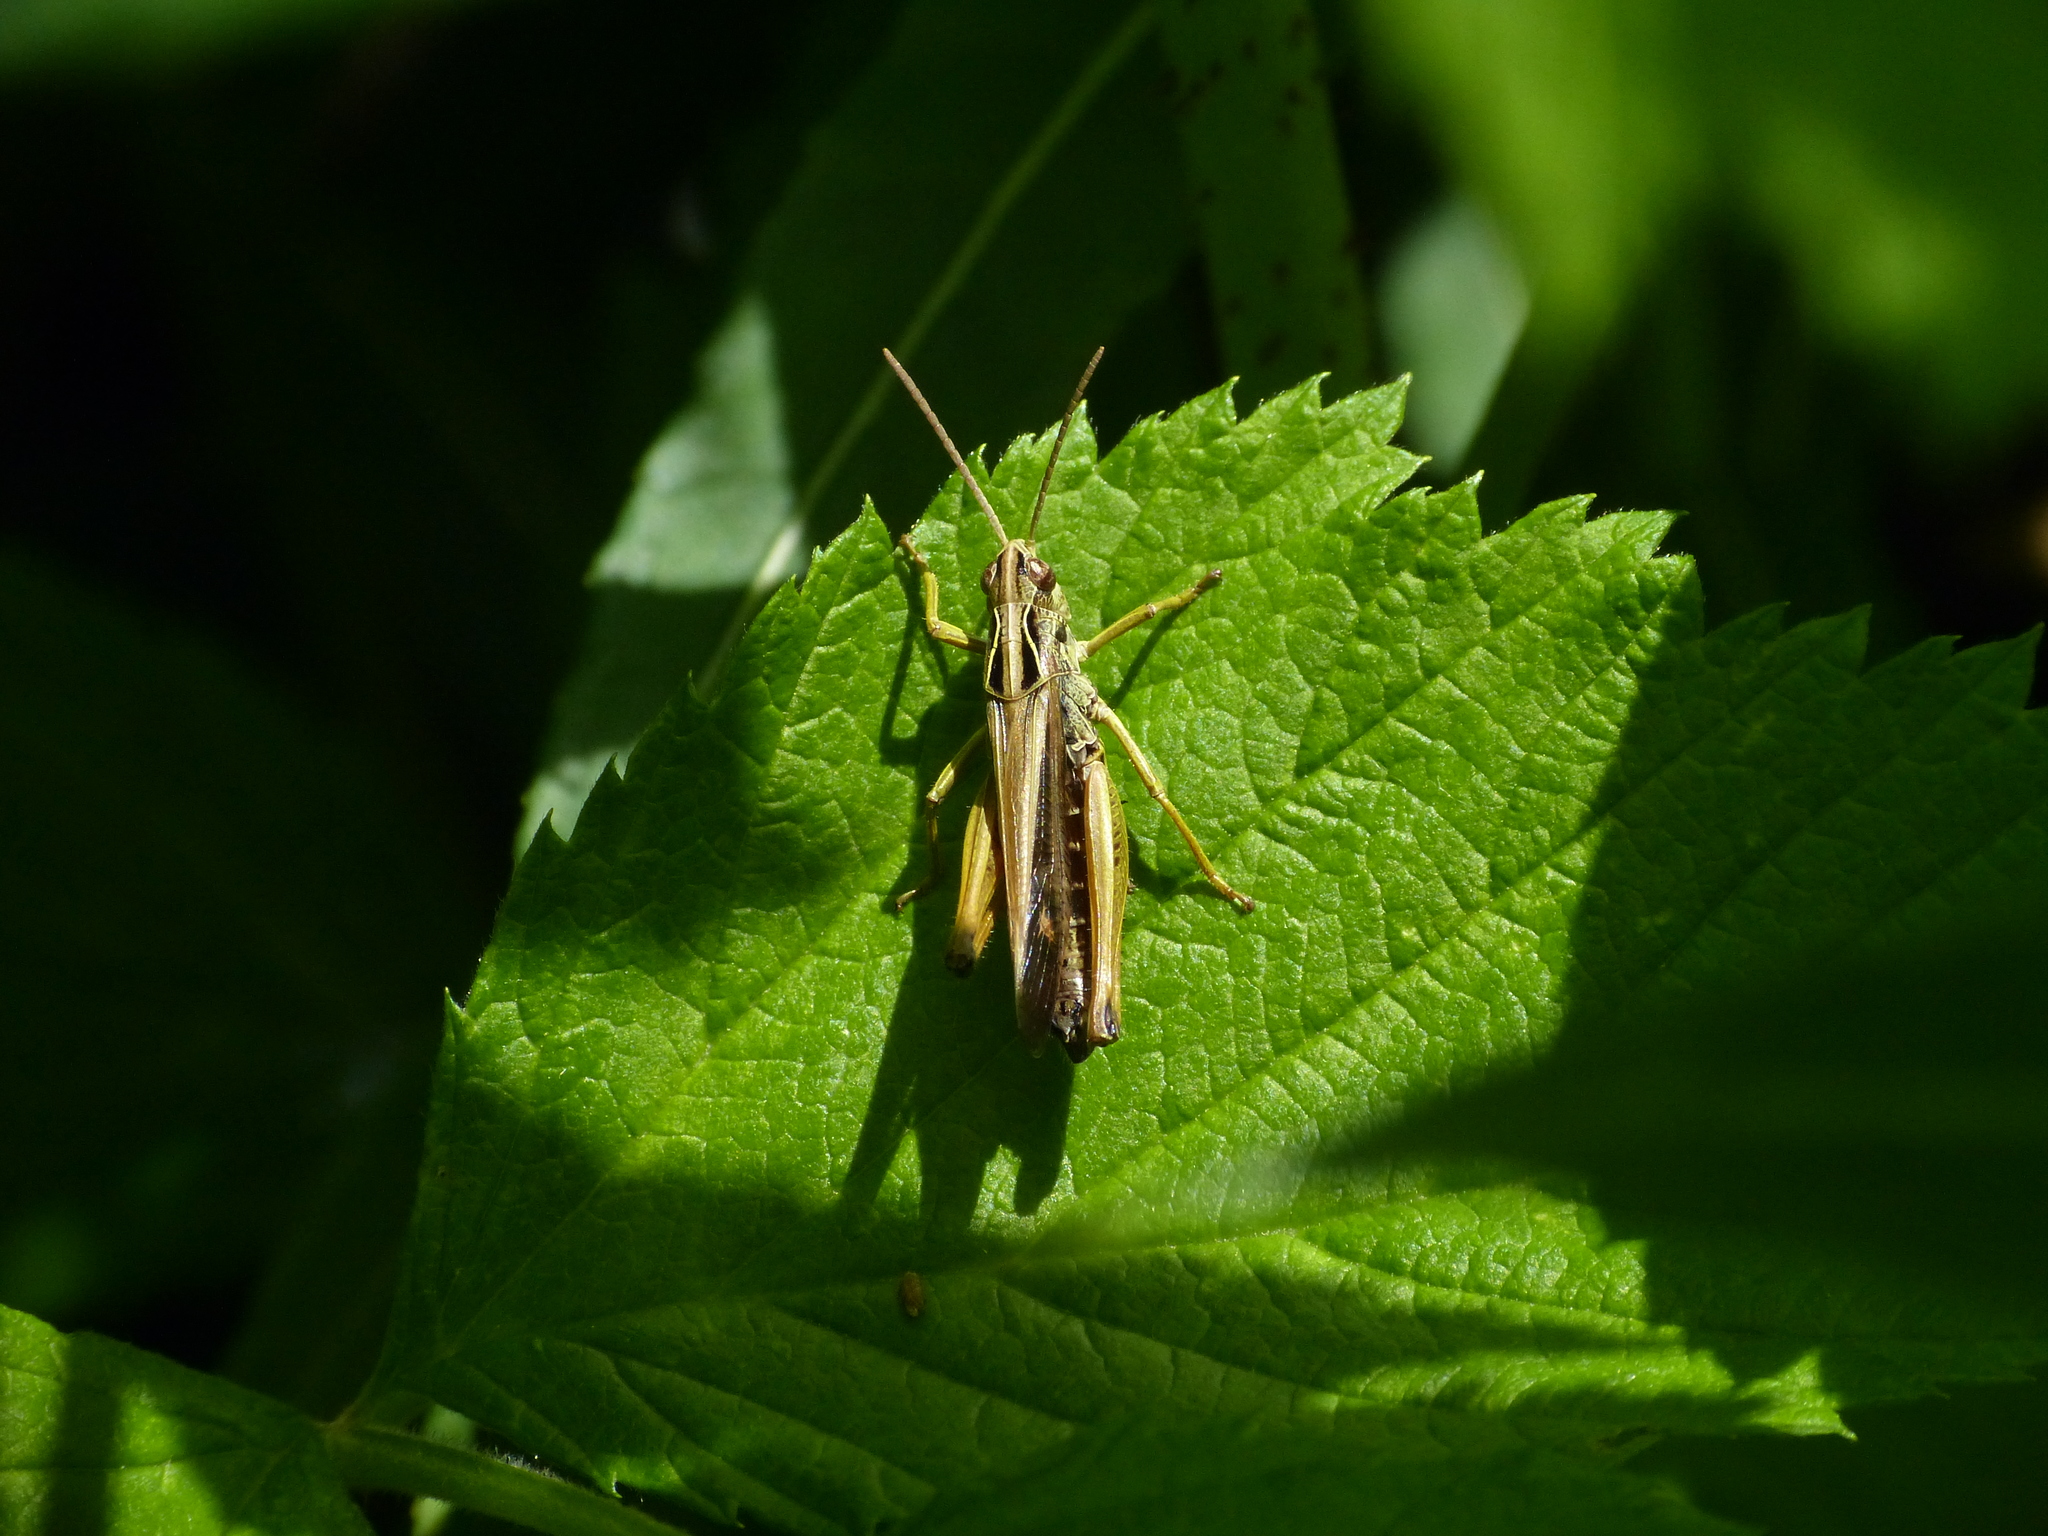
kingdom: Animalia
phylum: Arthropoda
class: Insecta
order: Orthoptera
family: Acrididae
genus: Omocestus
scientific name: Omocestus viridulus
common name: Common green grasshopper
